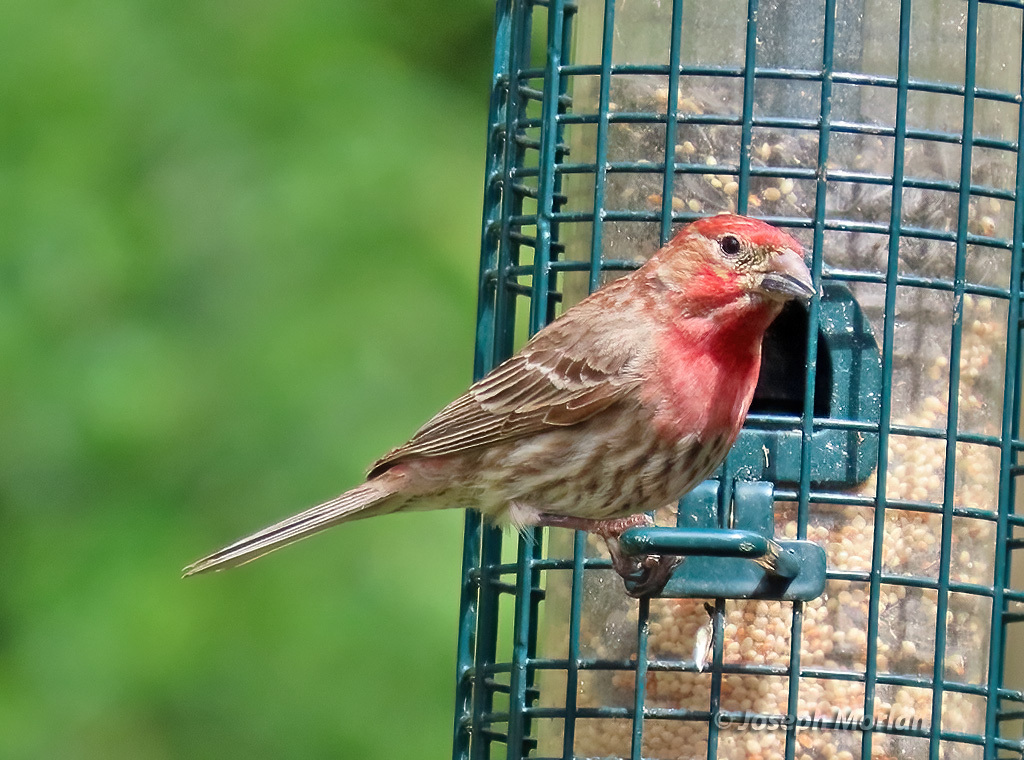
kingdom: Animalia
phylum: Chordata
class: Aves
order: Passeriformes
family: Fringillidae
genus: Haemorhous
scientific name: Haemorhous mexicanus
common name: House finch
